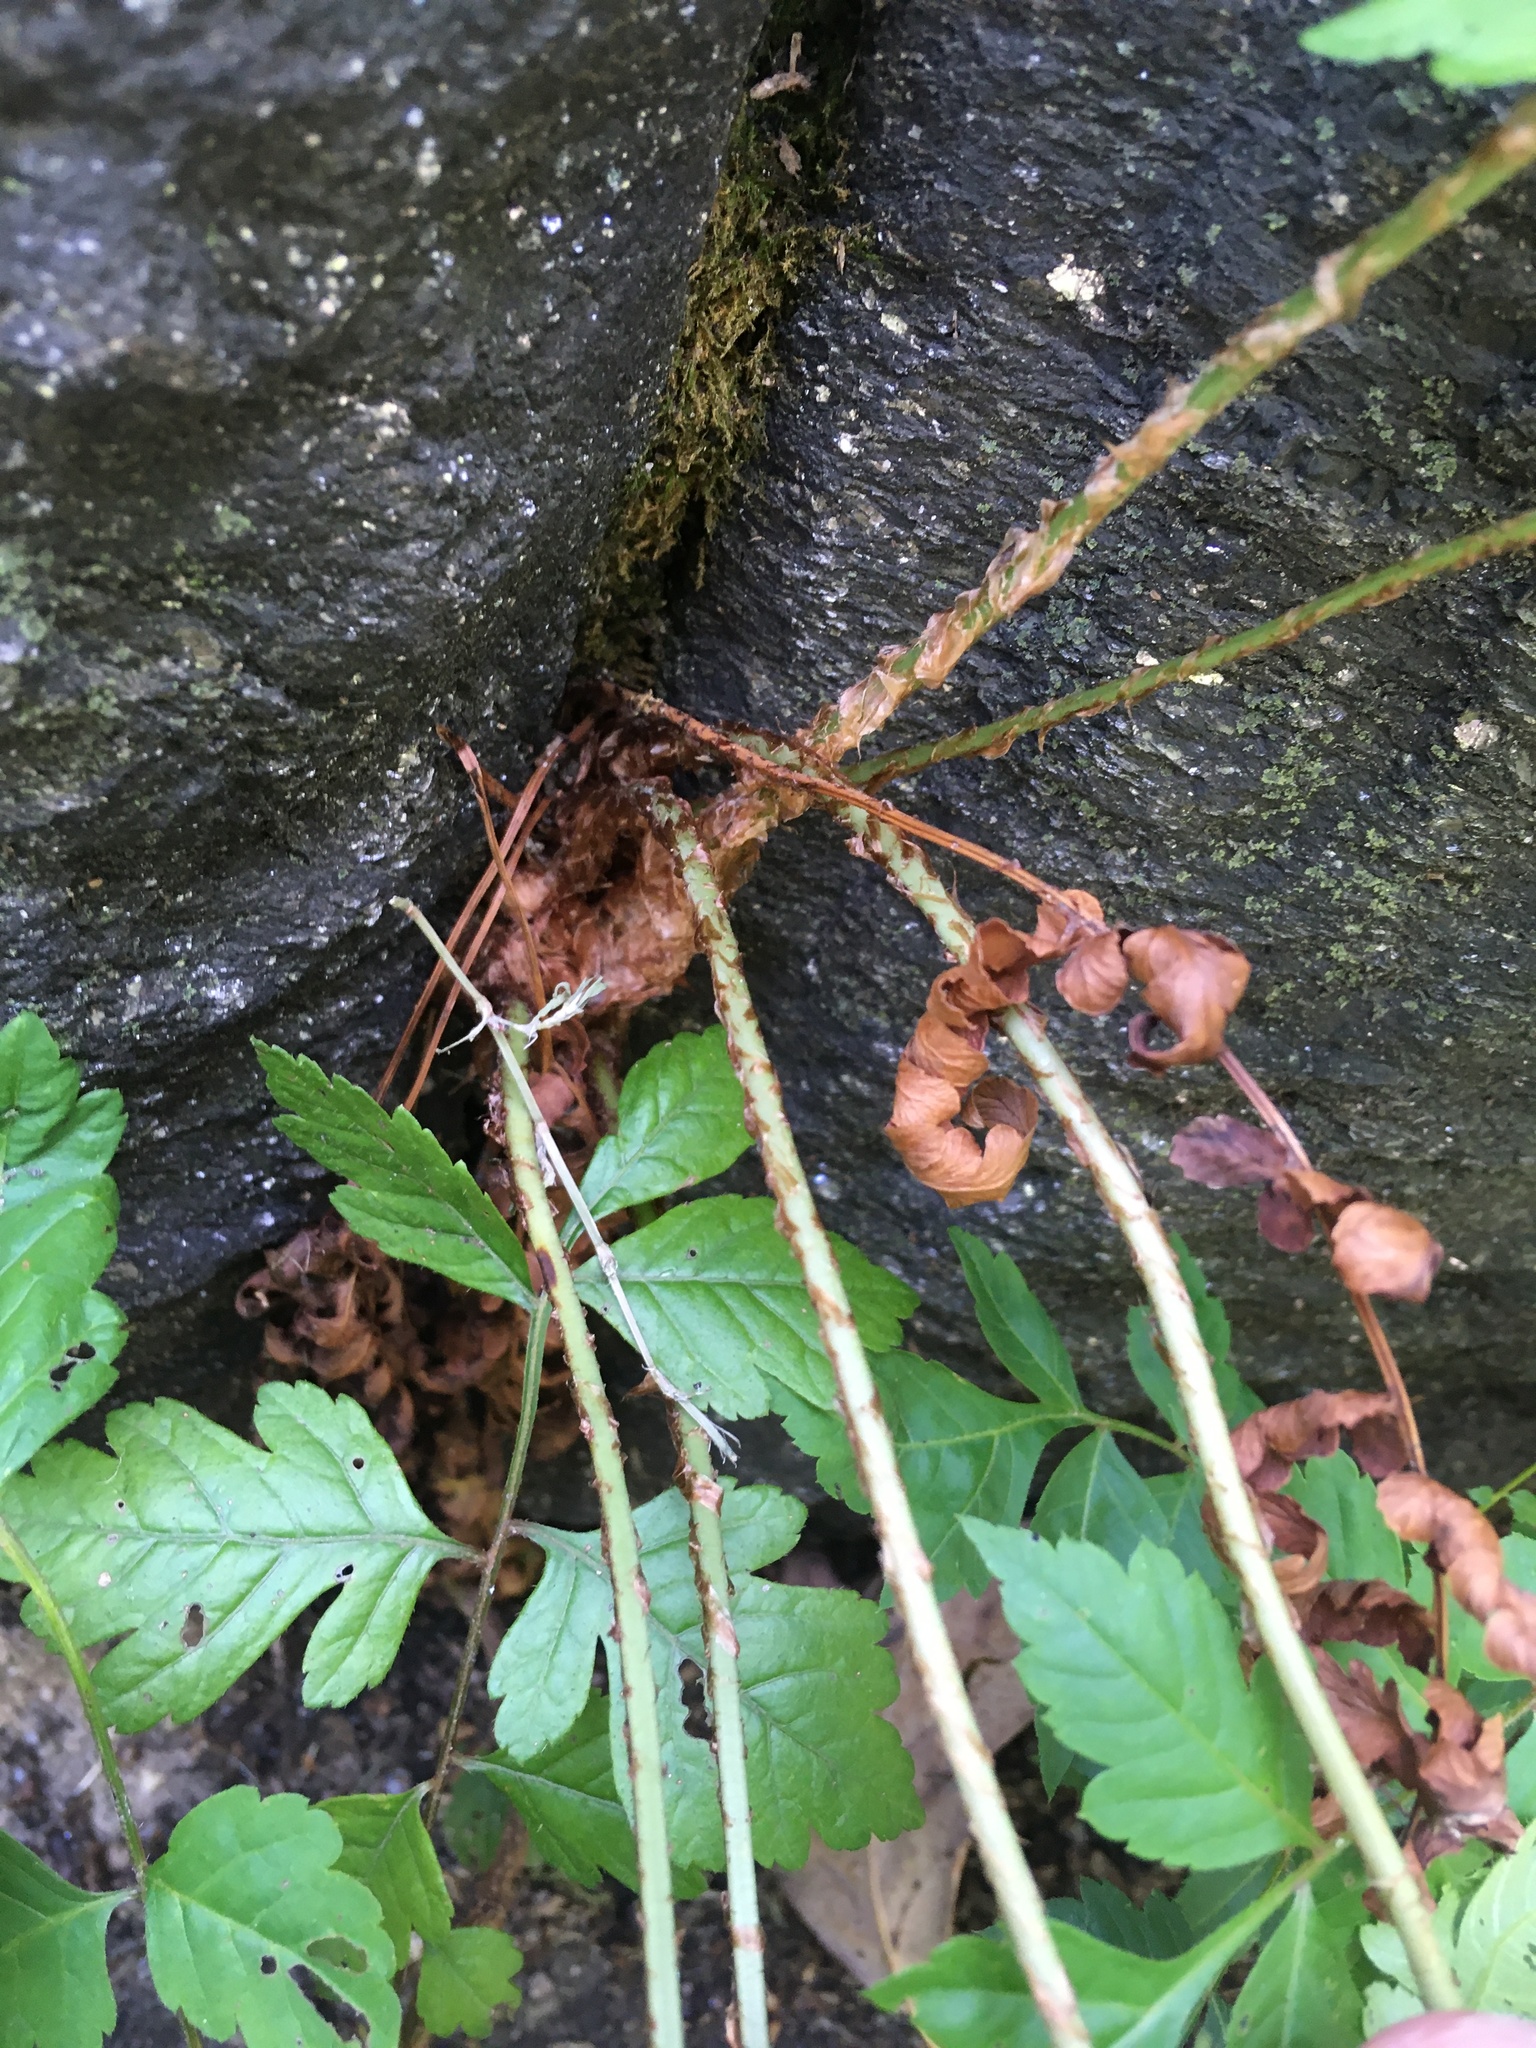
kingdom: Plantae
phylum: Tracheophyta
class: Polypodiopsida
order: Polypodiales
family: Dryopteridaceae
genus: Dryopteris
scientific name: Dryopteris marginalis
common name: Marginal wood fern
